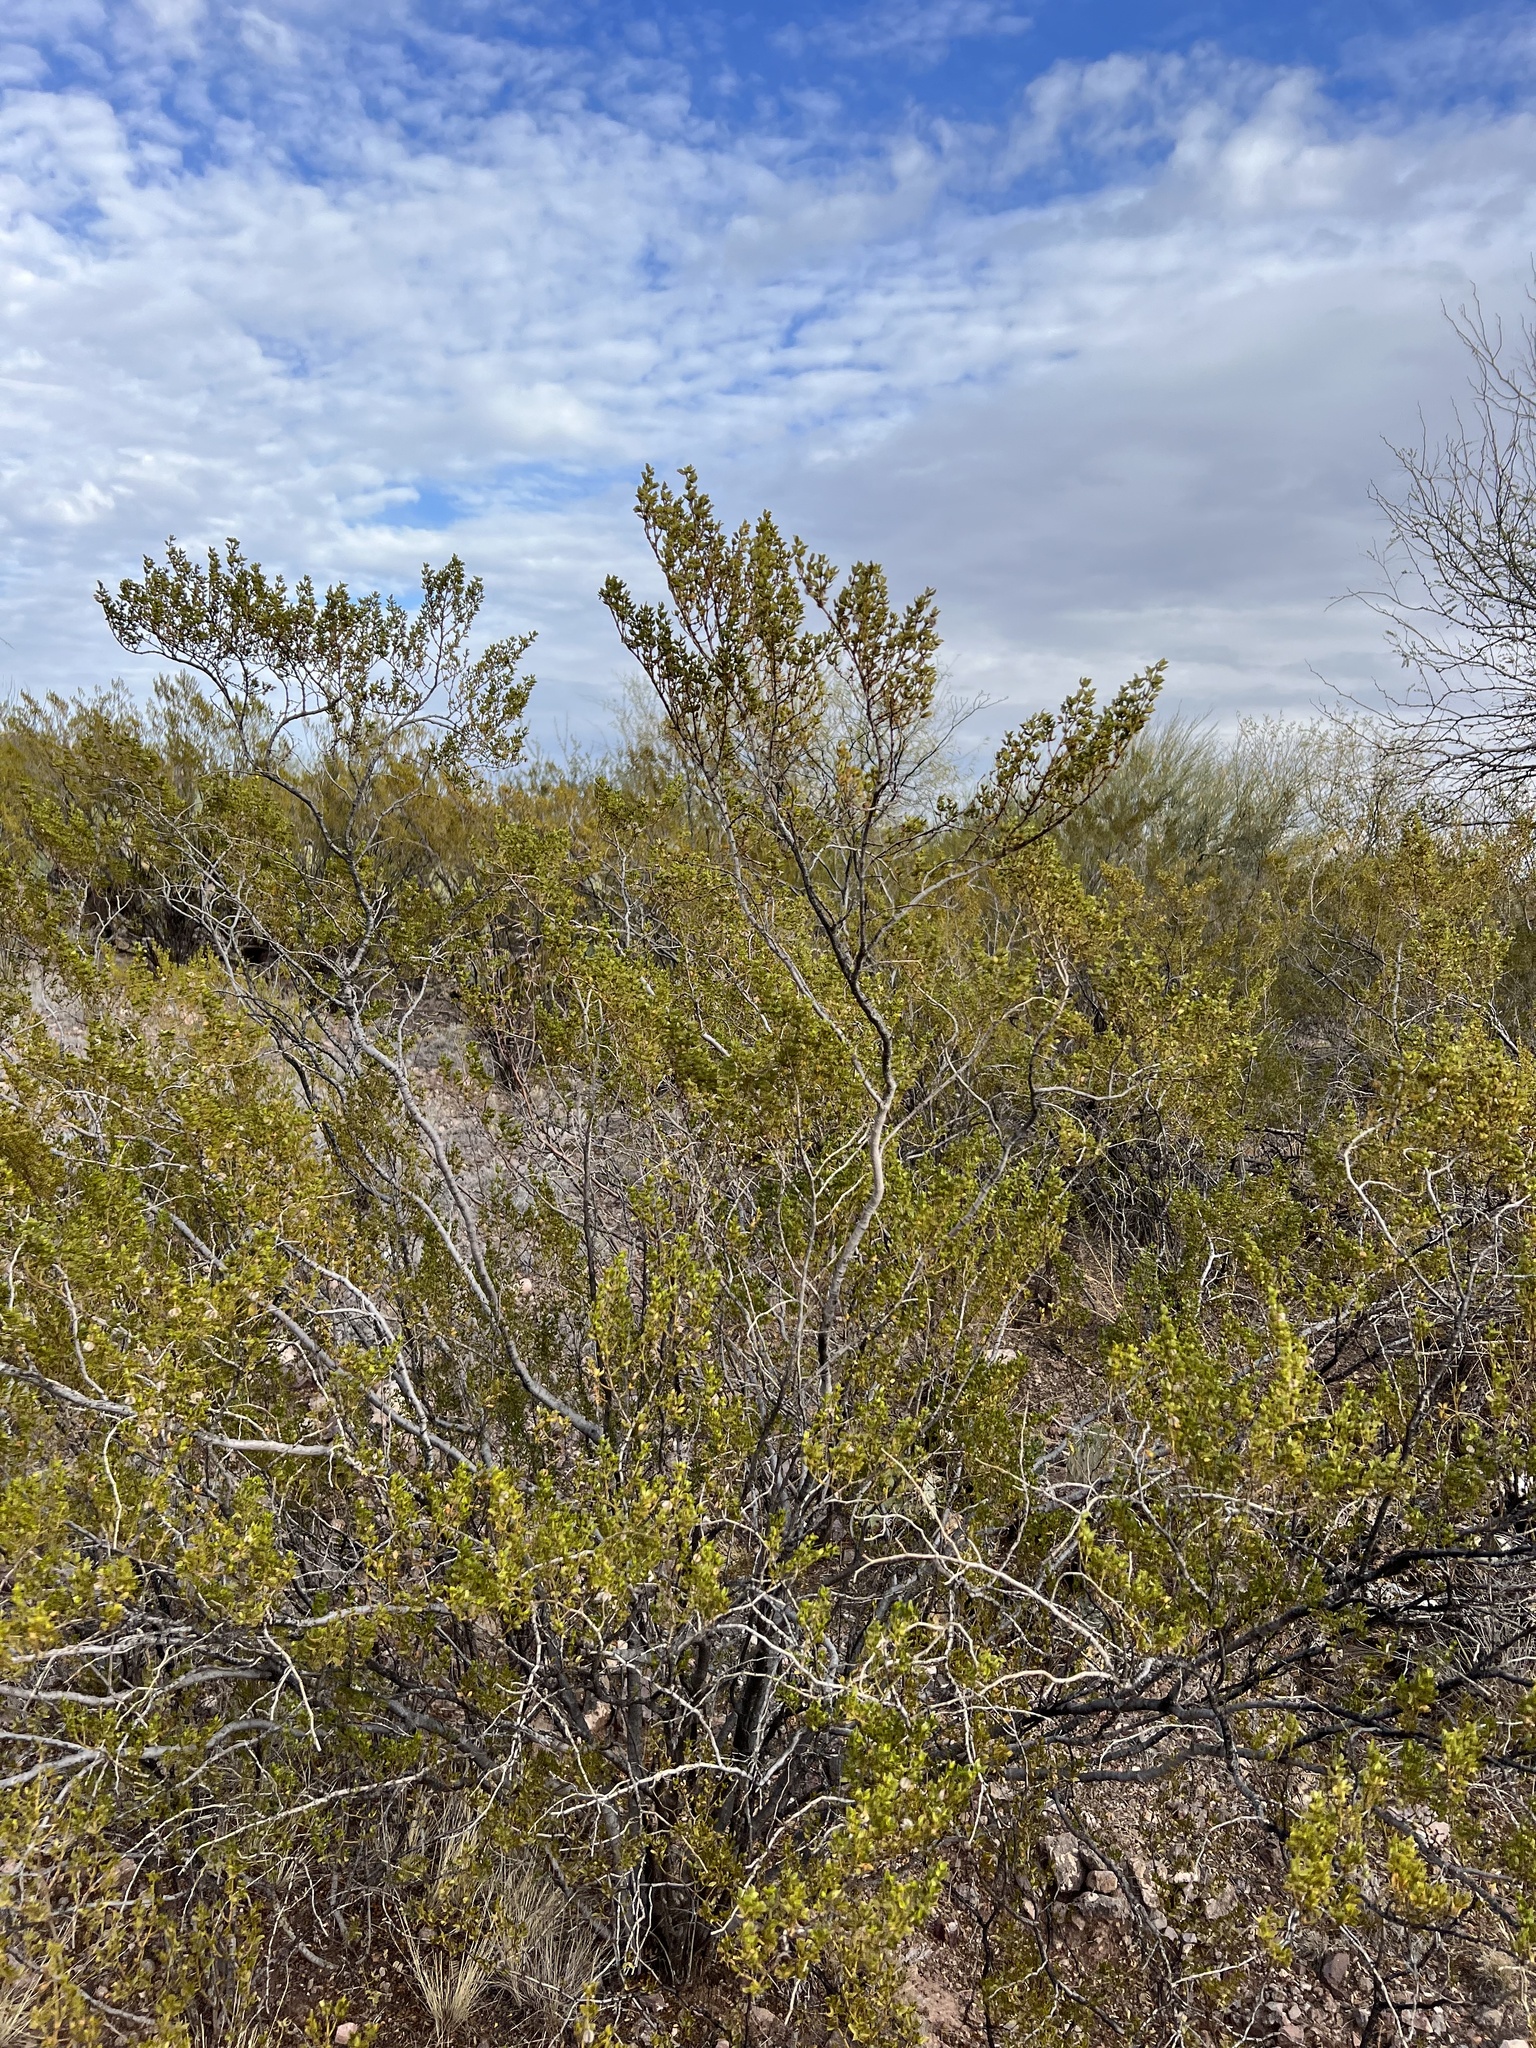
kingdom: Plantae
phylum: Tracheophyta
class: Magnoliopsida
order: Zygophyllales
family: Zygophyllaceae
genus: Larrea
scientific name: Larrea tridentata
